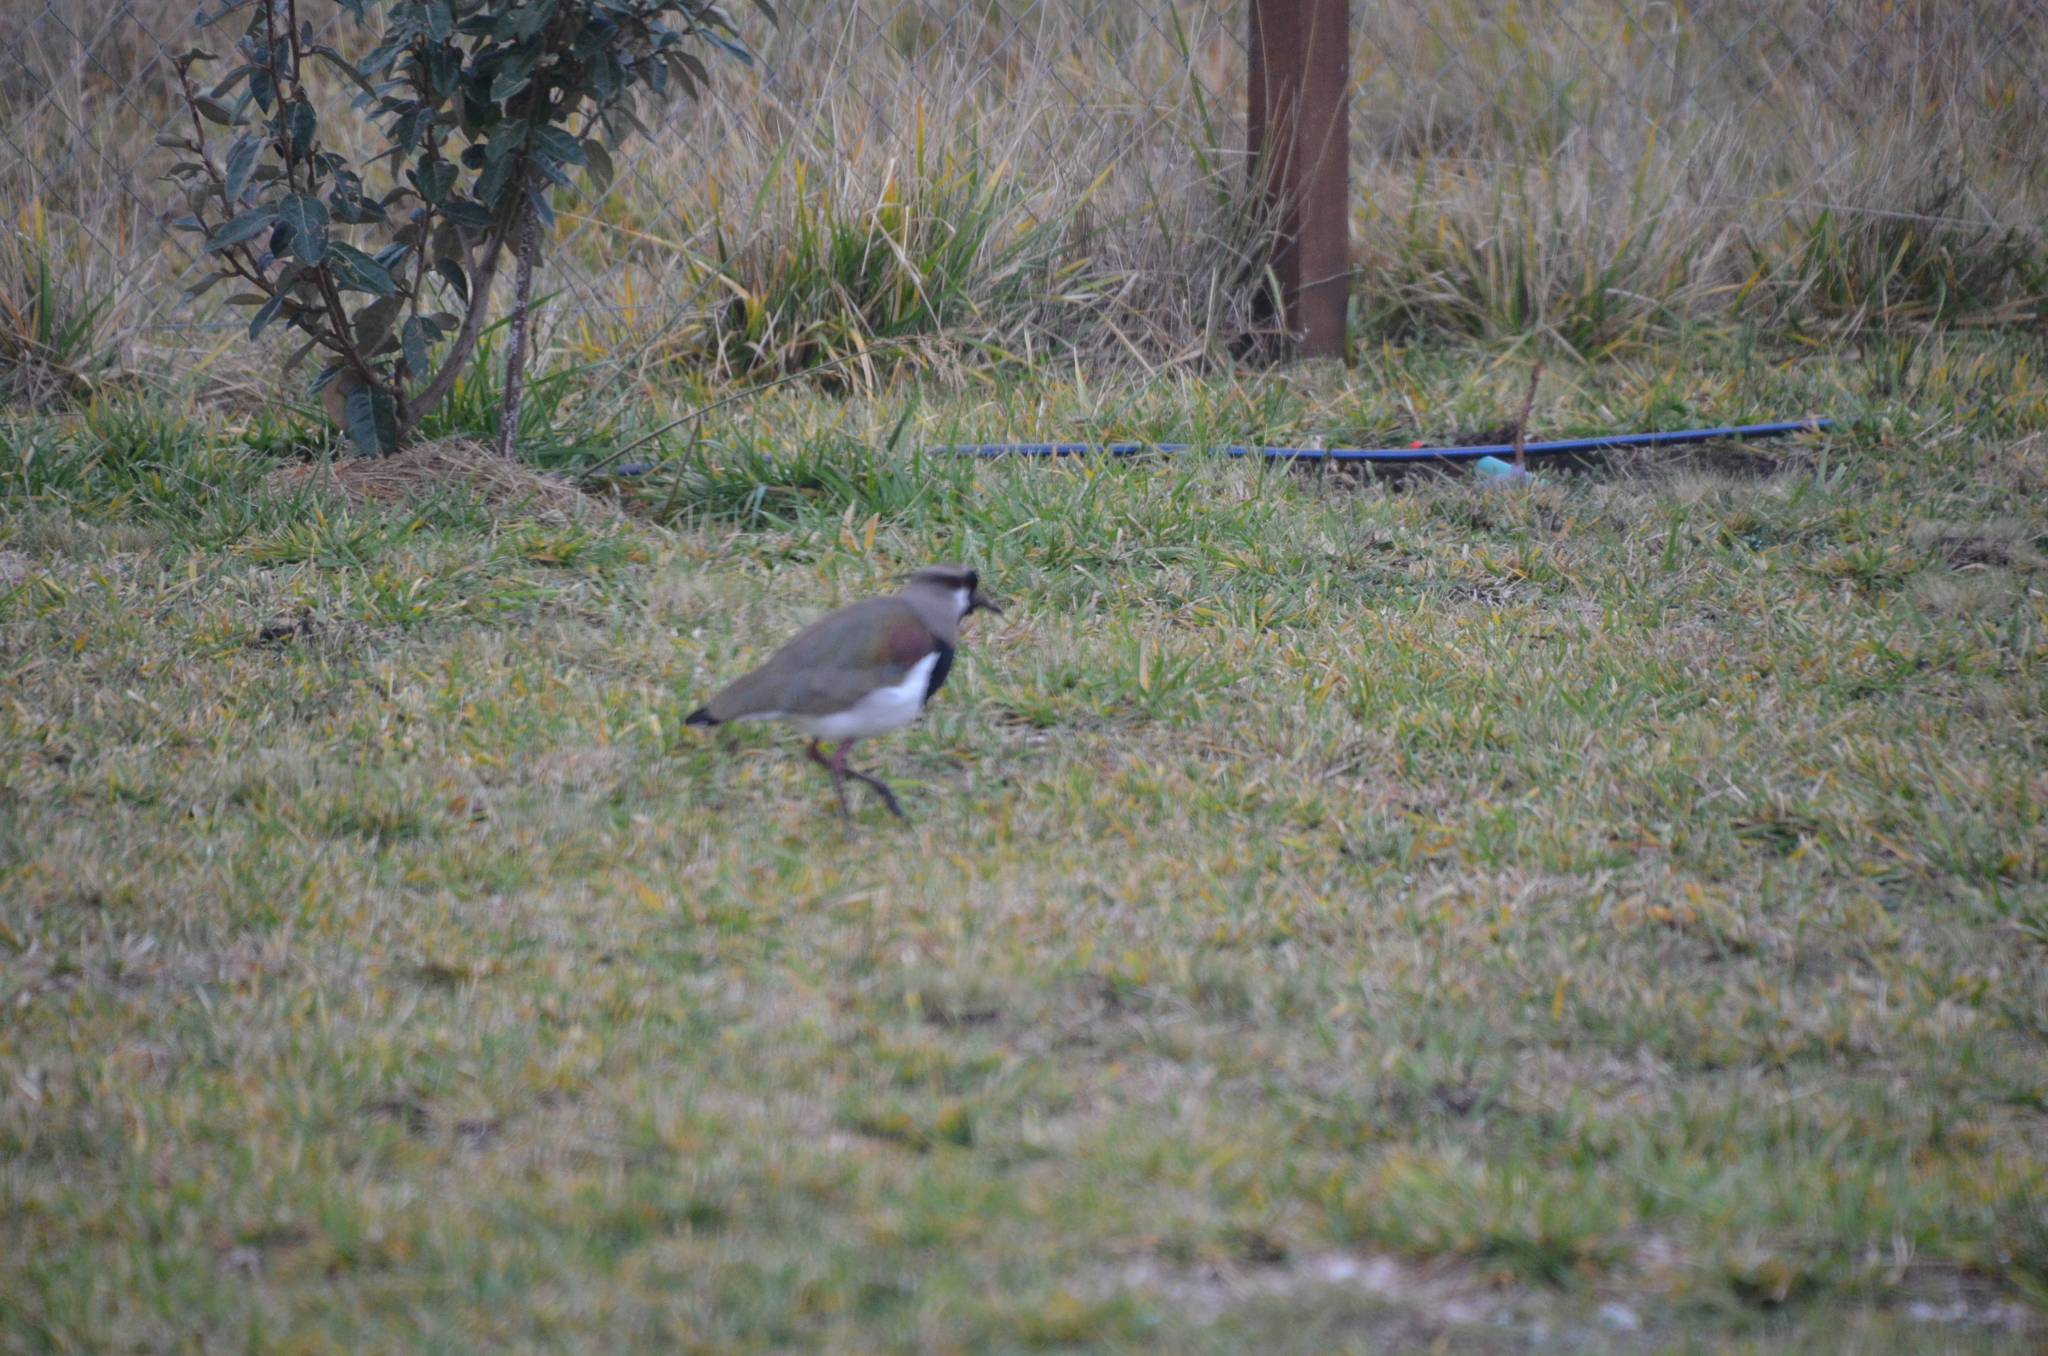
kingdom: Animalia
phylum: Chordata
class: Aves
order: Charadriiformes
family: Charadriidae
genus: Vanellus
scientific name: Vanellus chilensis
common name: Southern lapwing
